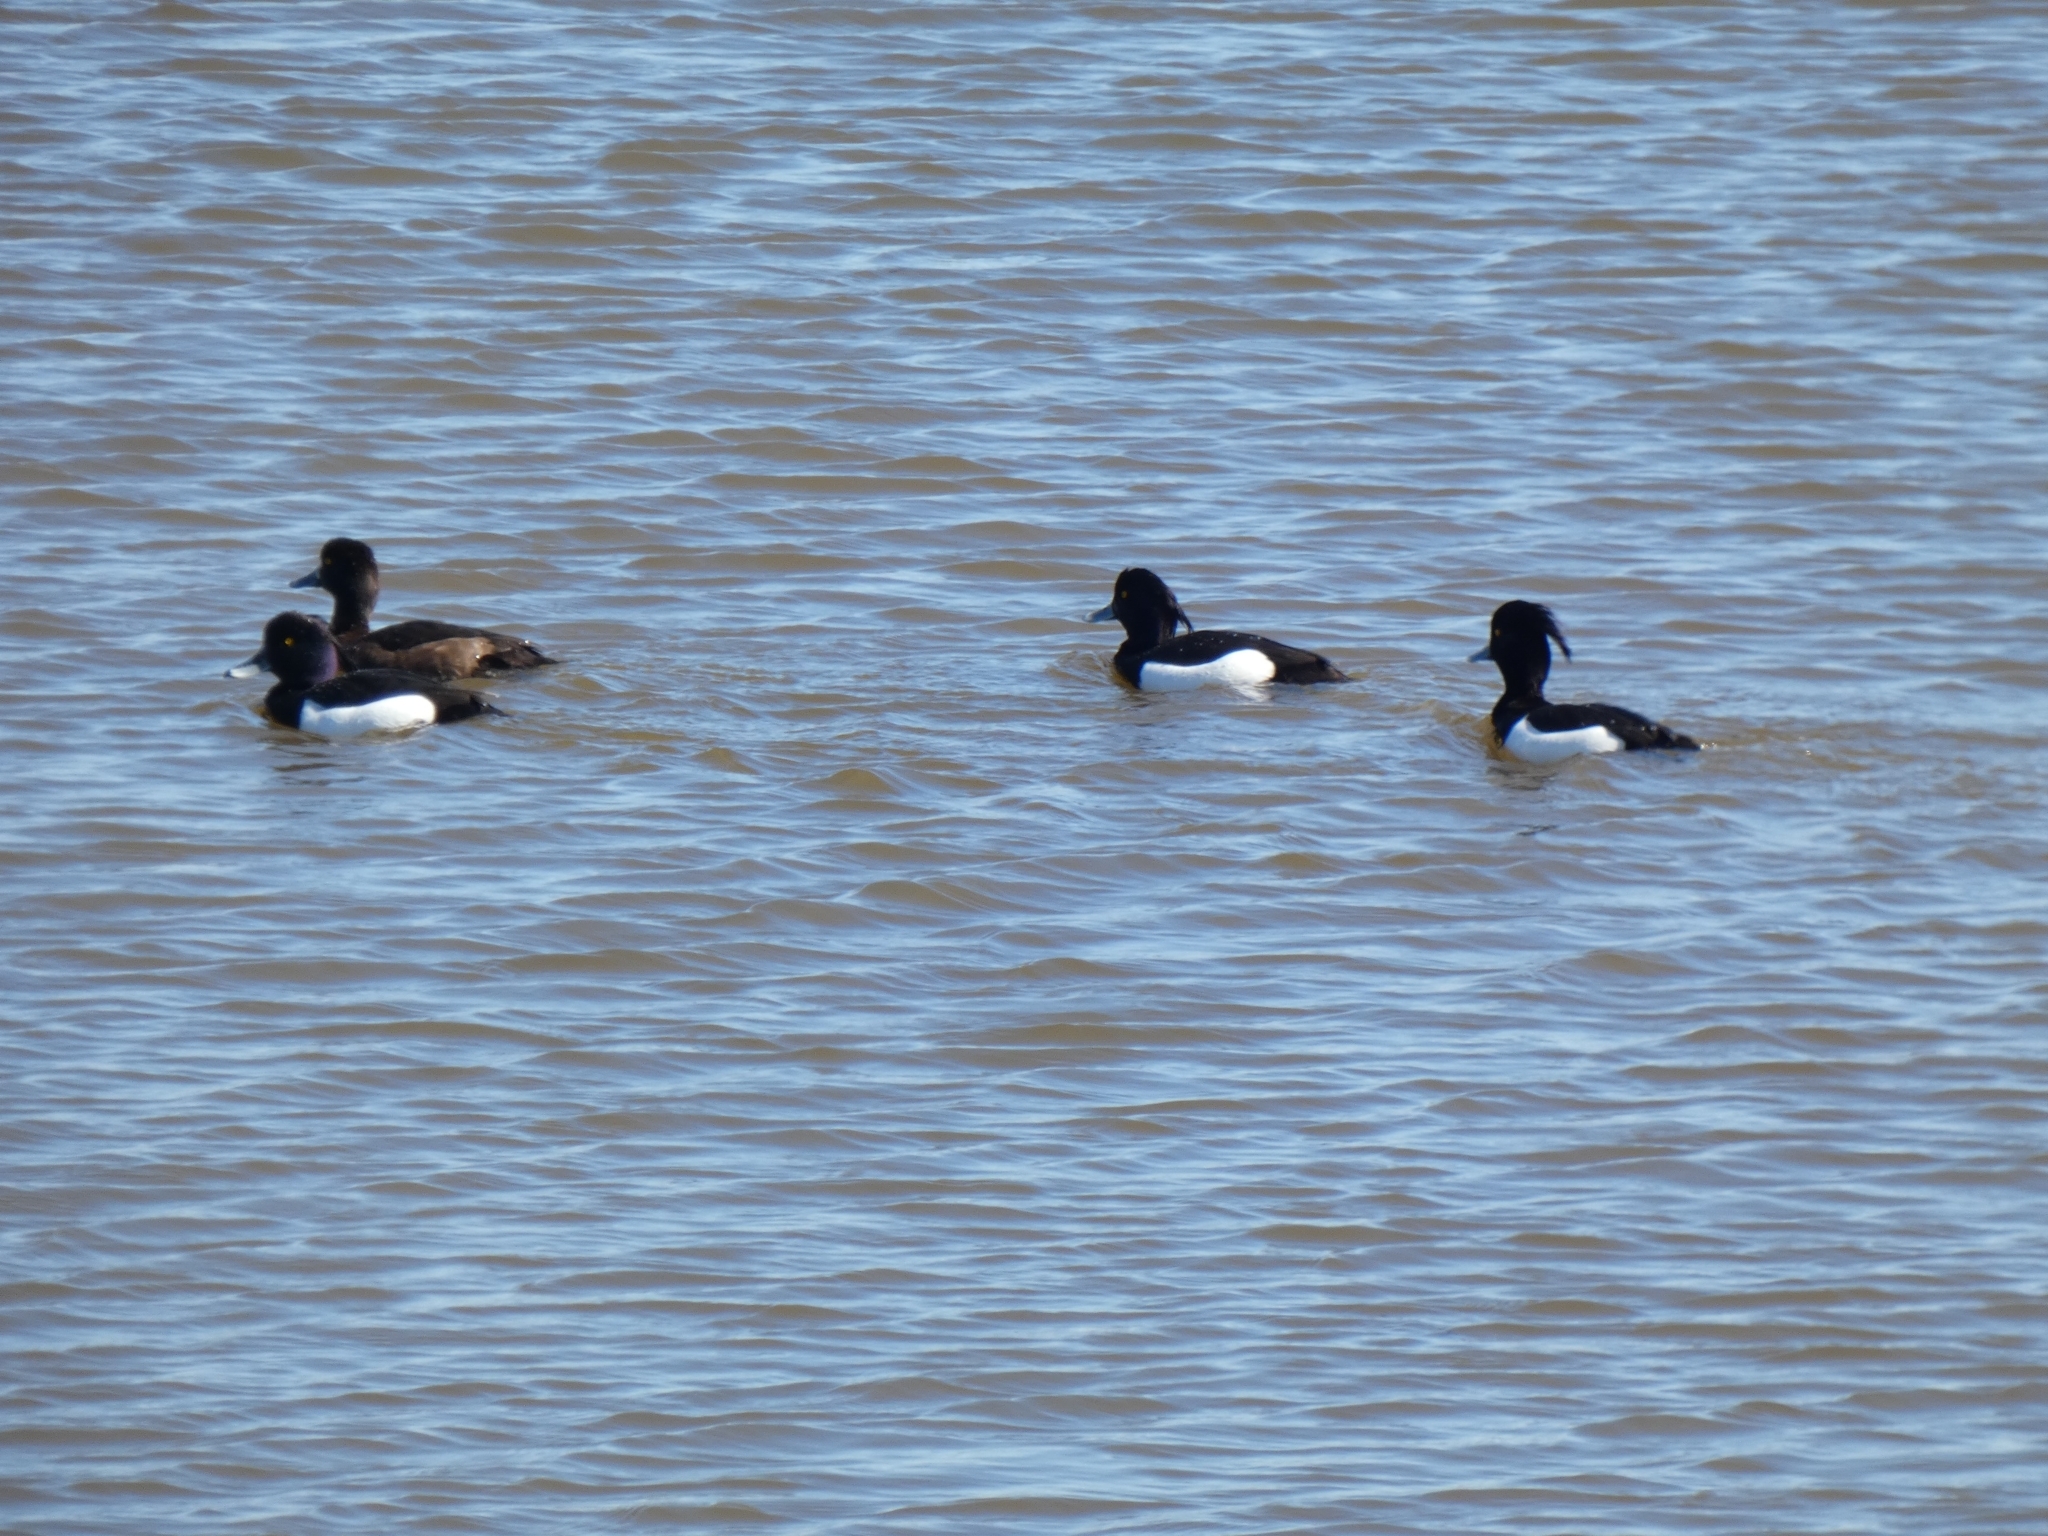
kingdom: Animalia
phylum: Chordata
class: Aves
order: Anseriformes
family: Anatidae
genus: Aythya
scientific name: Aythya fuligula
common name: Tufted duck
